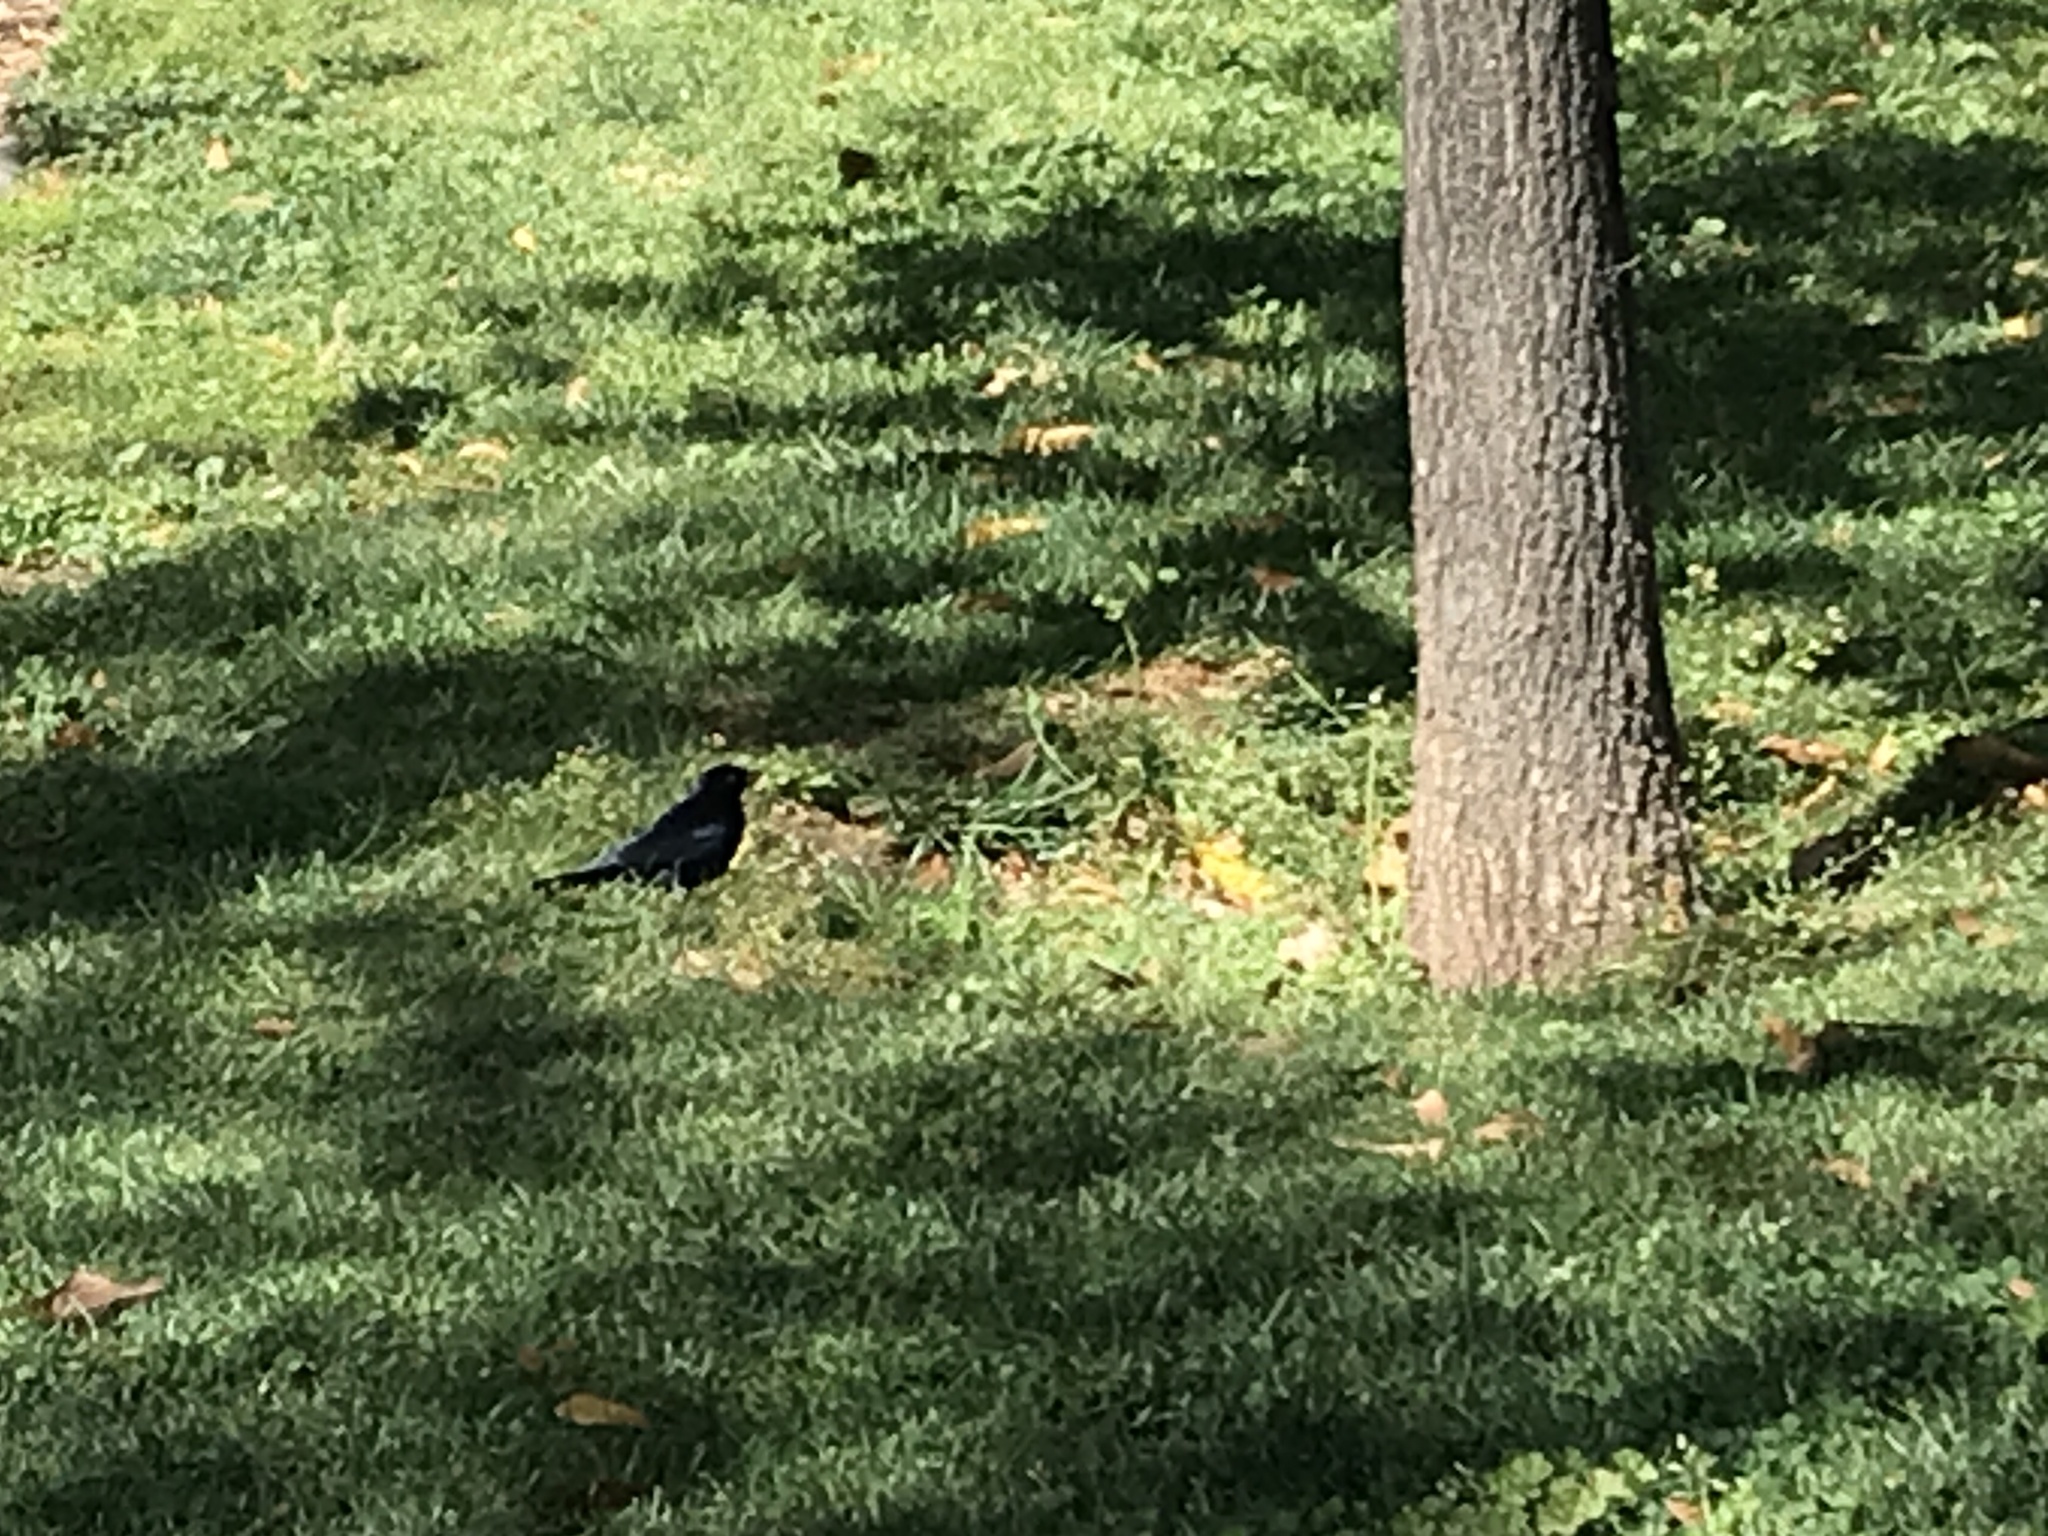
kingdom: Animalia
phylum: Chordata
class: Aves
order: Passeriformes
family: Icteridae
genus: Molothrus
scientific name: Molothrus bonariensis
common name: Shiny cowbird
